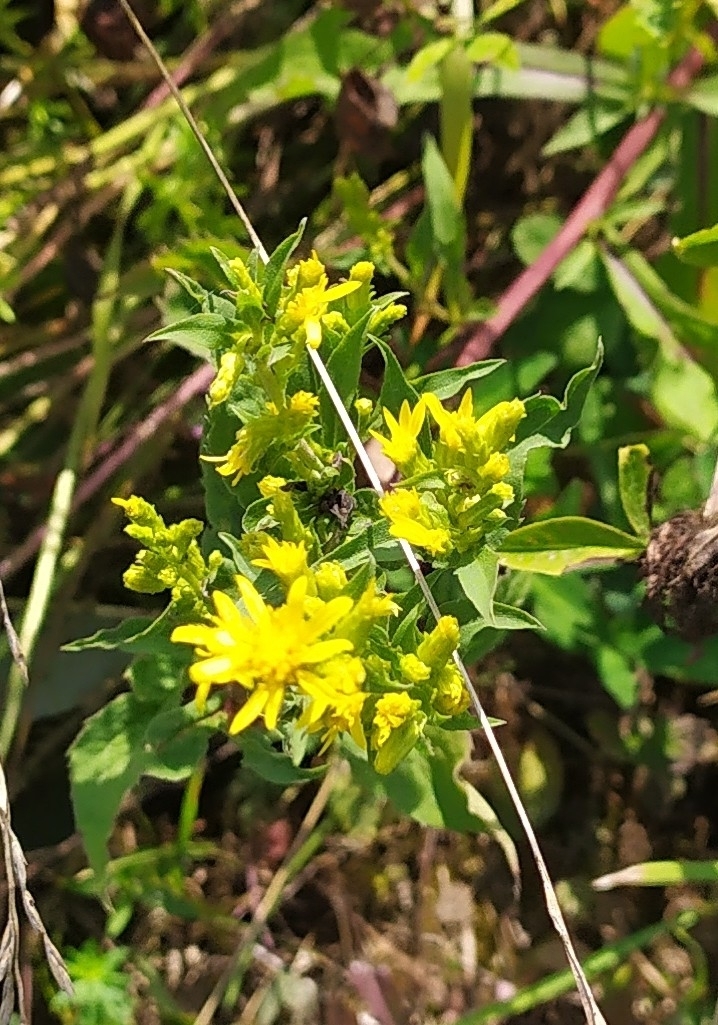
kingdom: Plantae
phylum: Tracheophyta
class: Magnoliopsida
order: Asterales
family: Asteraceae
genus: Solidago
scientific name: Solidago virgaurea
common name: Goldenrod
